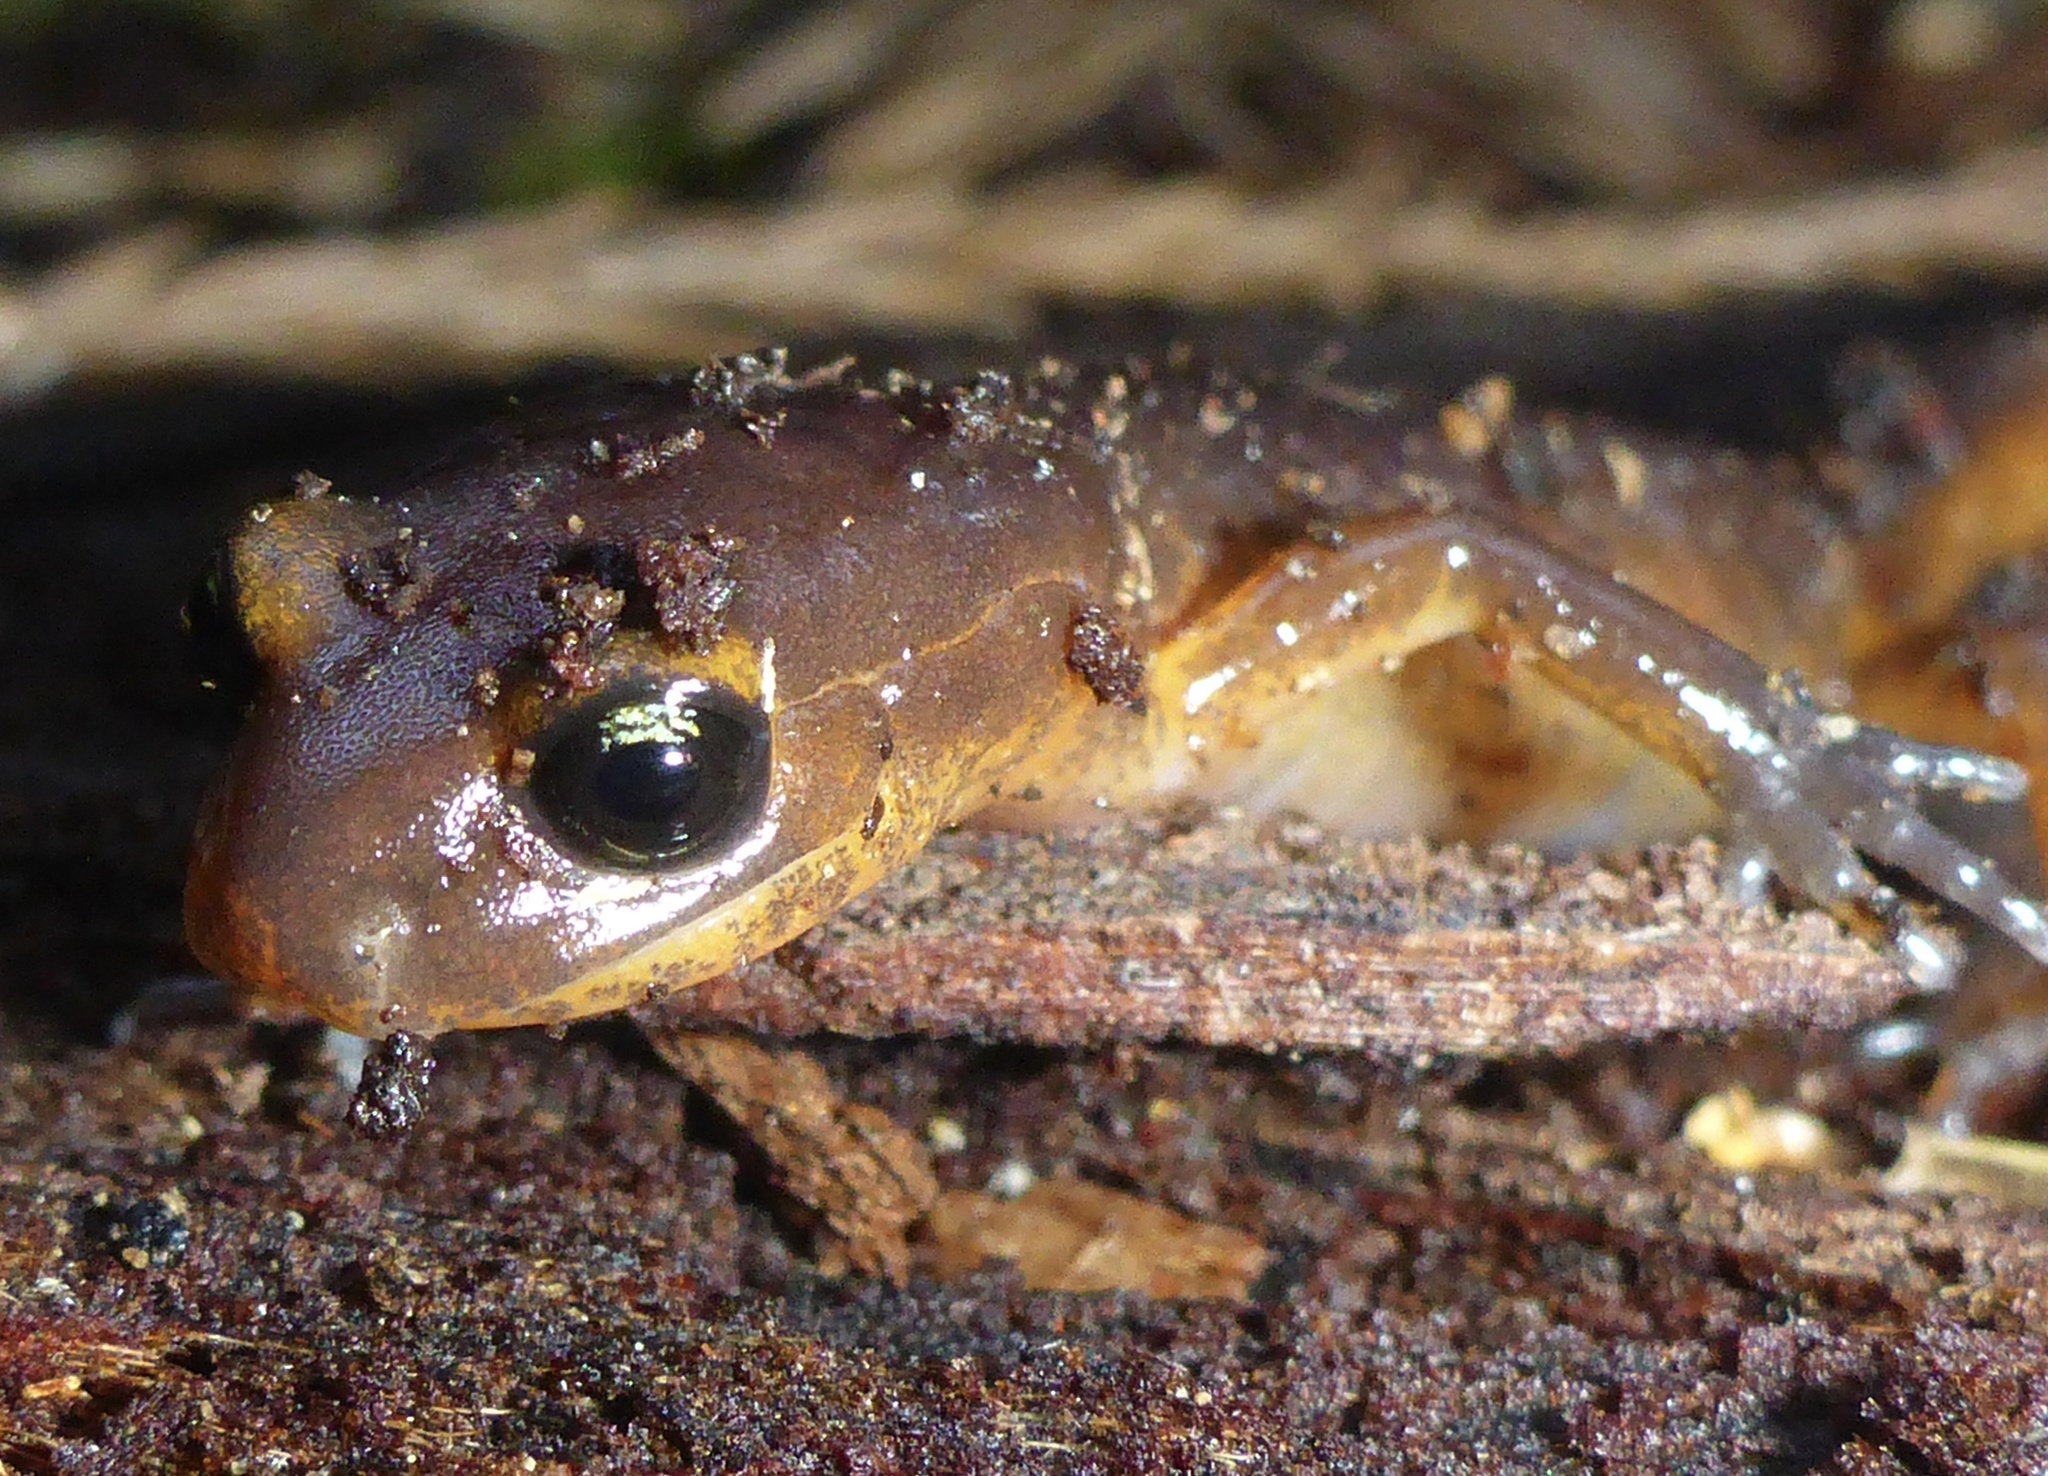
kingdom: Animalia
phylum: Chordata
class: Amphibia
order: Caudata
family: Plethodontidae
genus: Ensatina
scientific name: Ensatina eschscholtzii
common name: Ensatina
